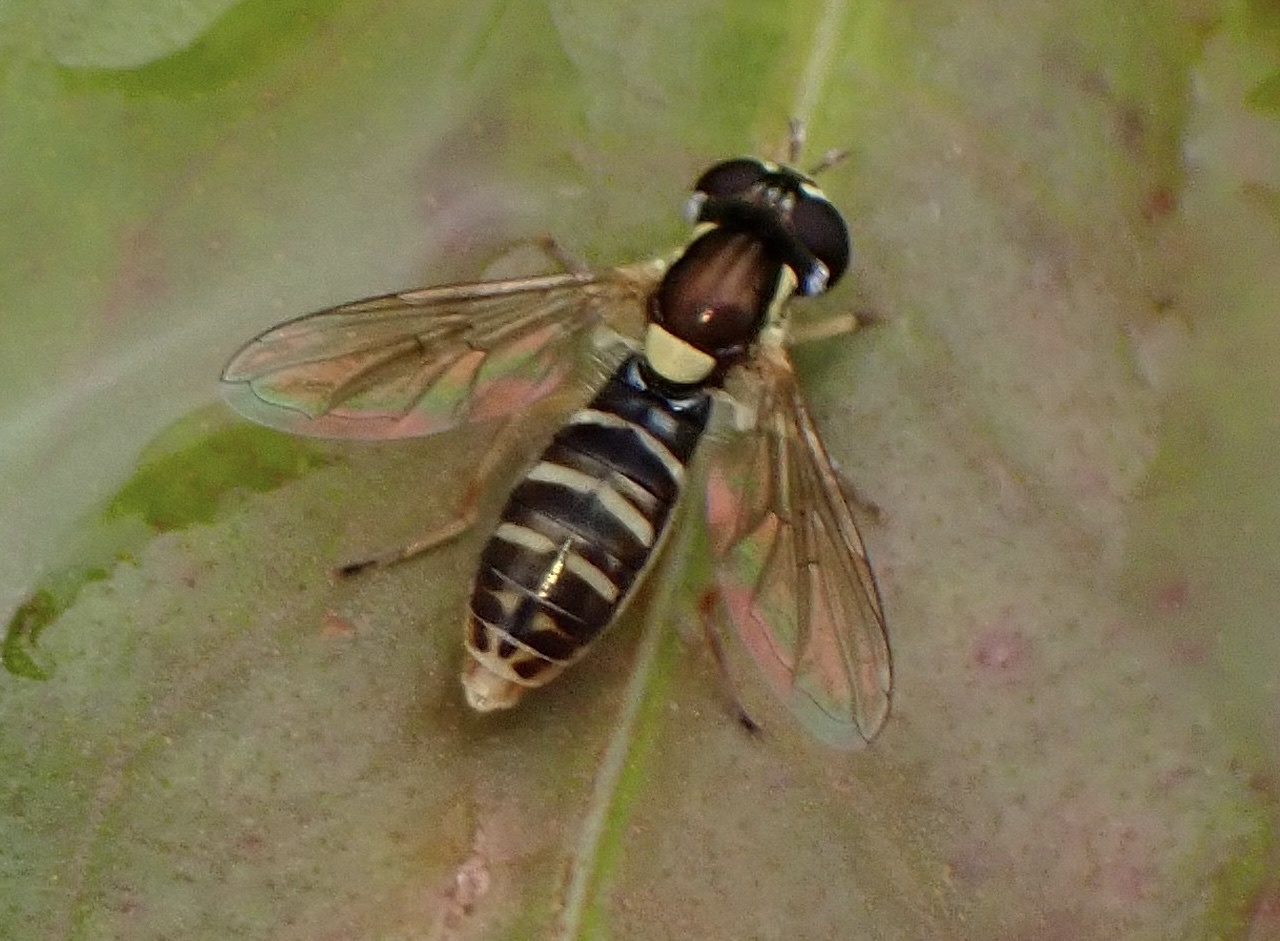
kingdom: Animalia
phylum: Arthropoda
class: Insecta
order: Diptera
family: Syrphidae
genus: Sphaerophoria
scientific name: Sphaerophoria sulphuripes
